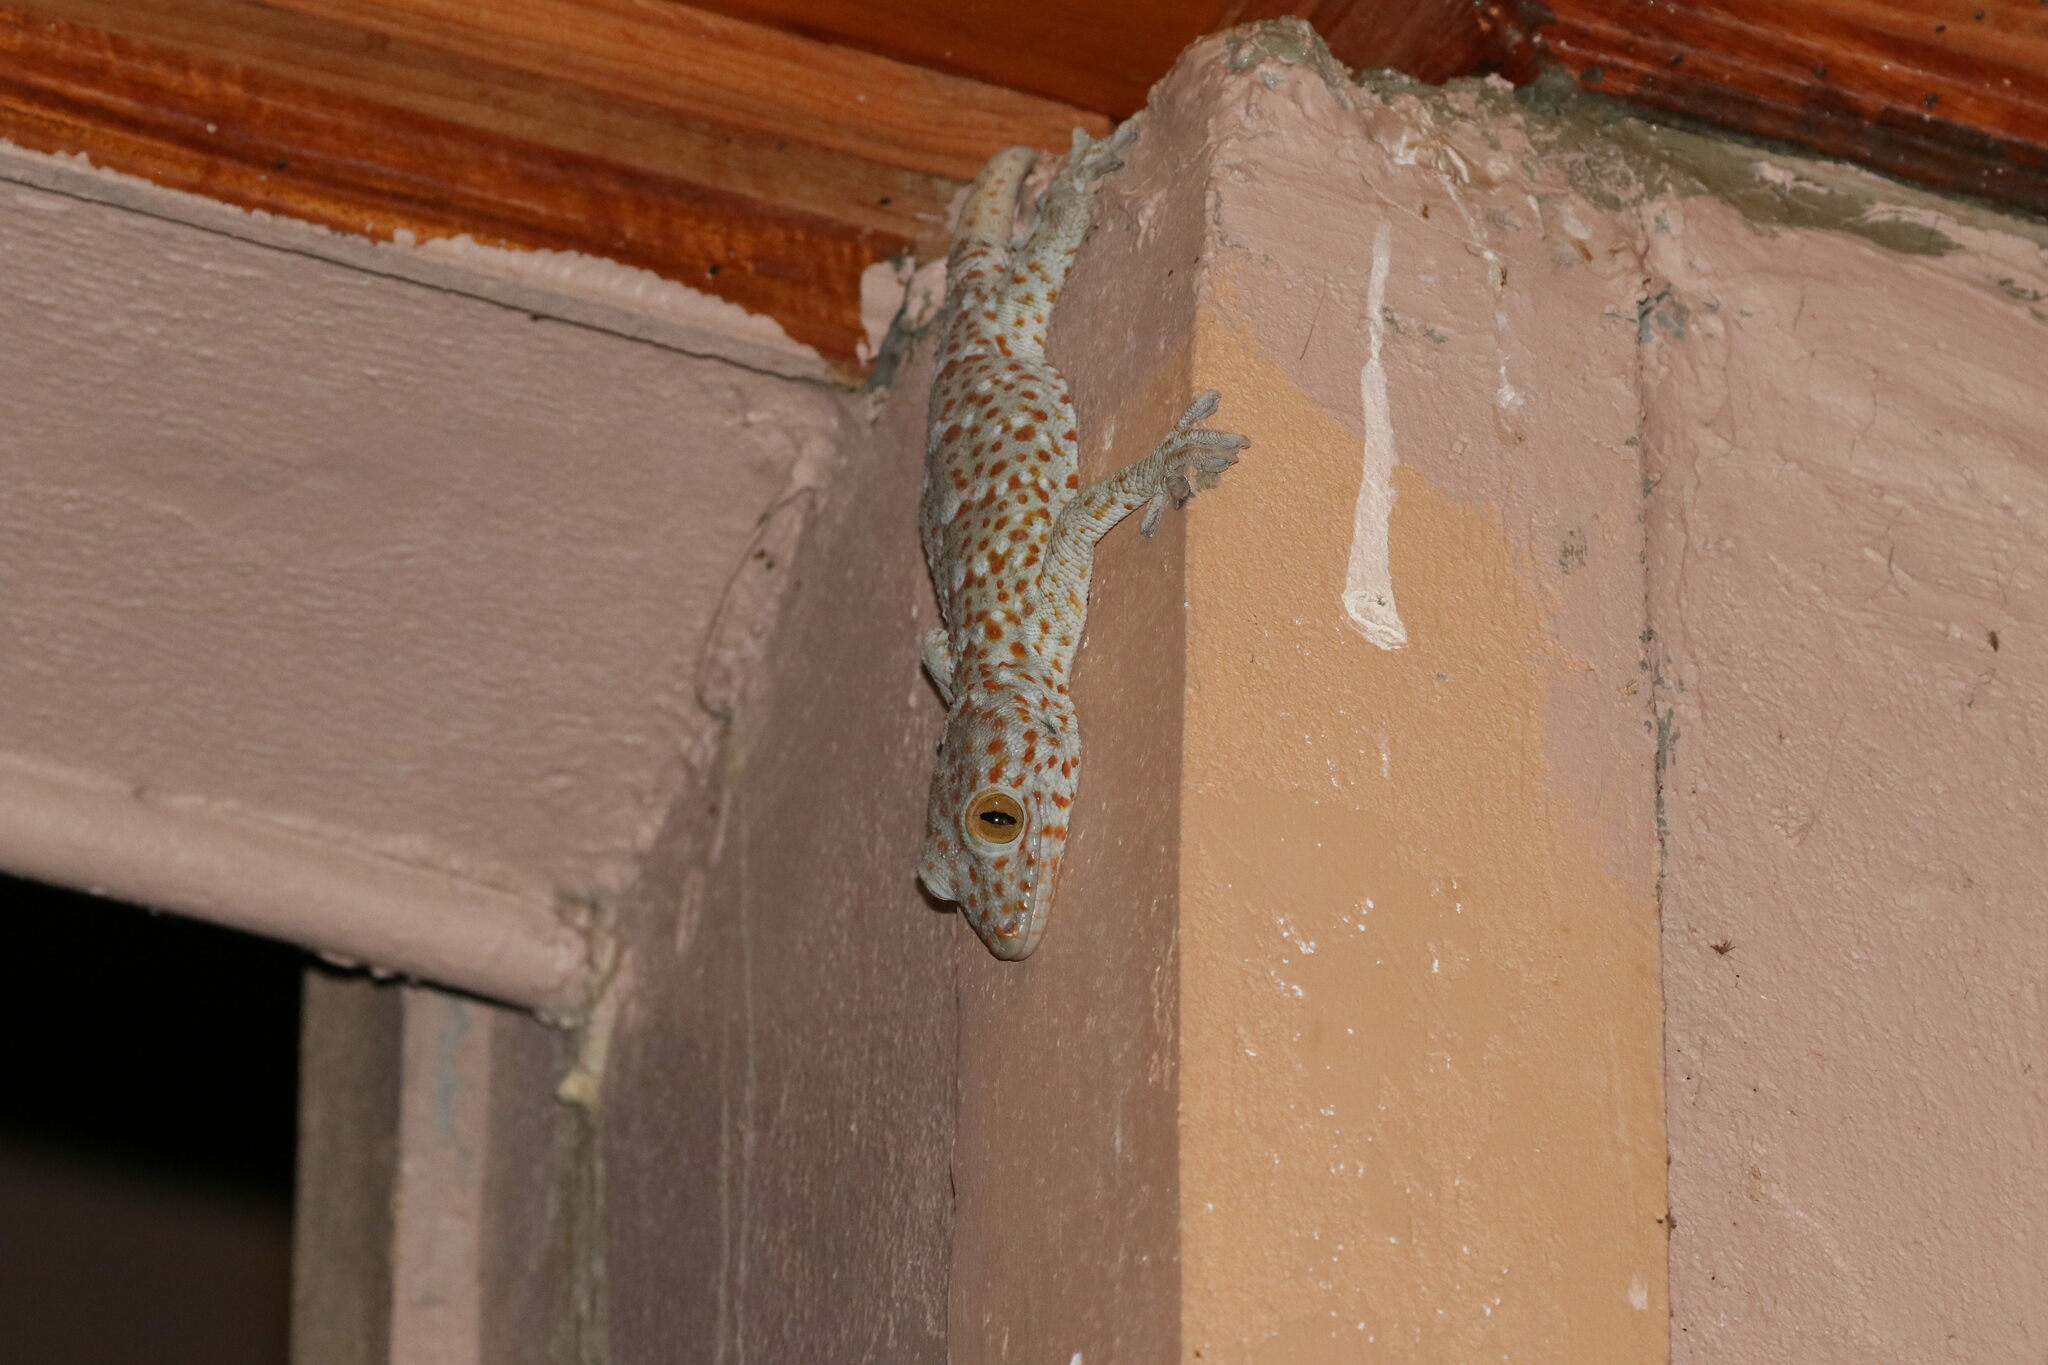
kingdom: Animalia
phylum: Chordata
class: Squamata
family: Gekkonidae
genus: Gekko
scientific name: Gekko gecko
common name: Tokay gecko
